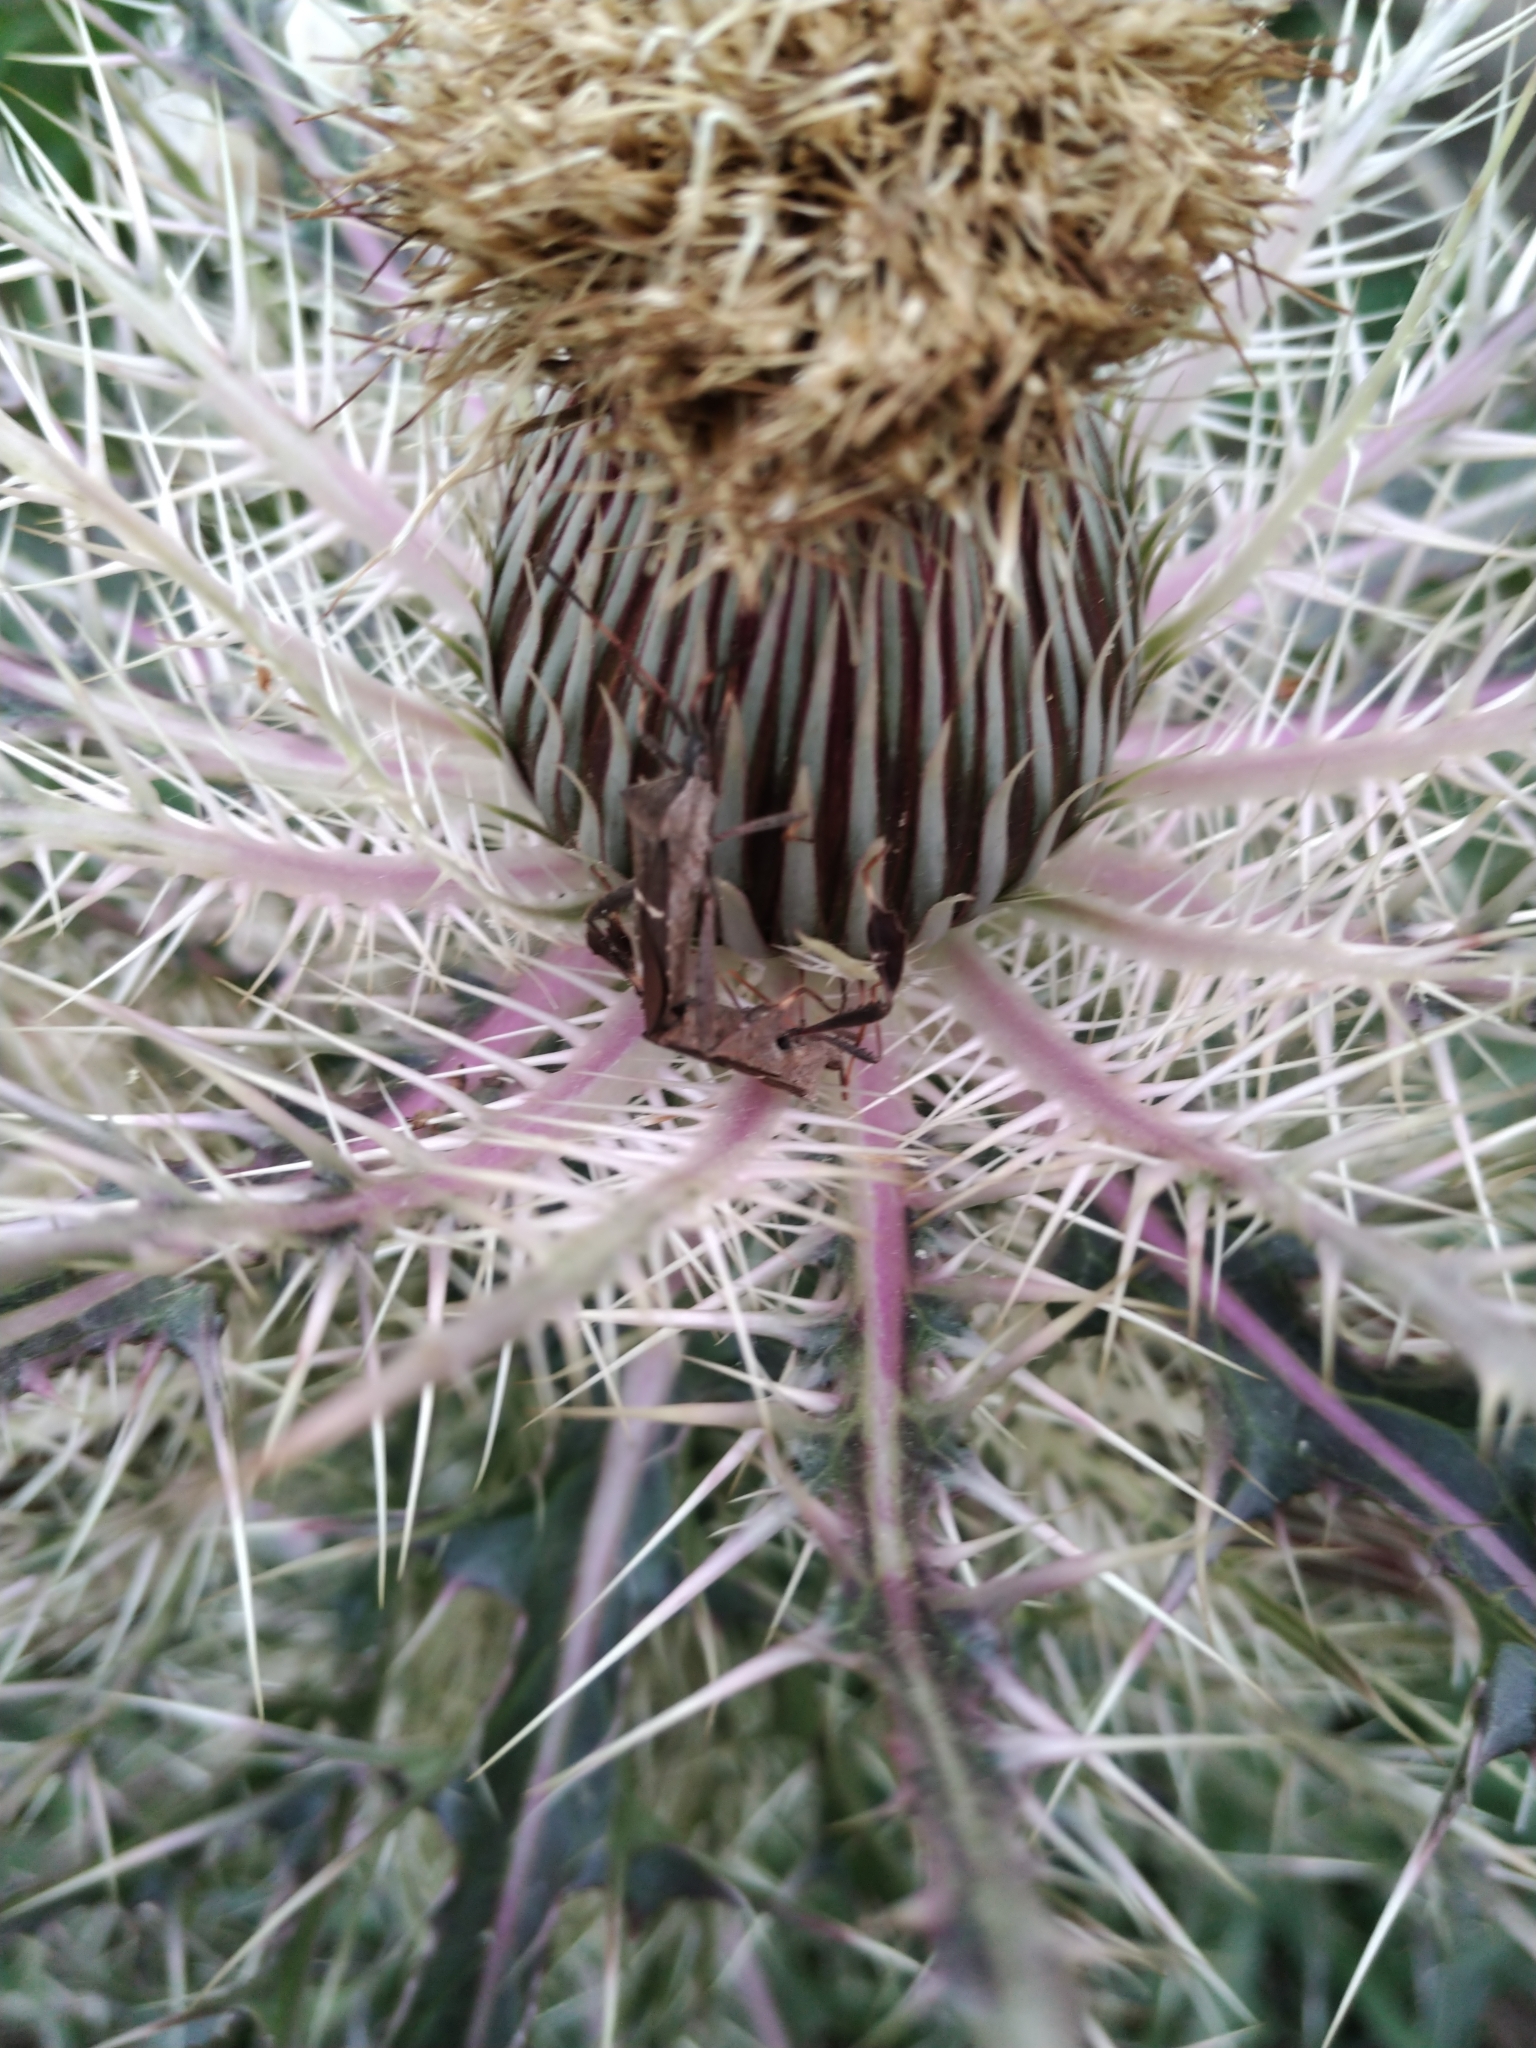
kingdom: Animalia
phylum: Arthropoda
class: Insecta
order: Hemiptera
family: Coreidae
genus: Leptoglossus
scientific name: Leptoglossus phyllopus
